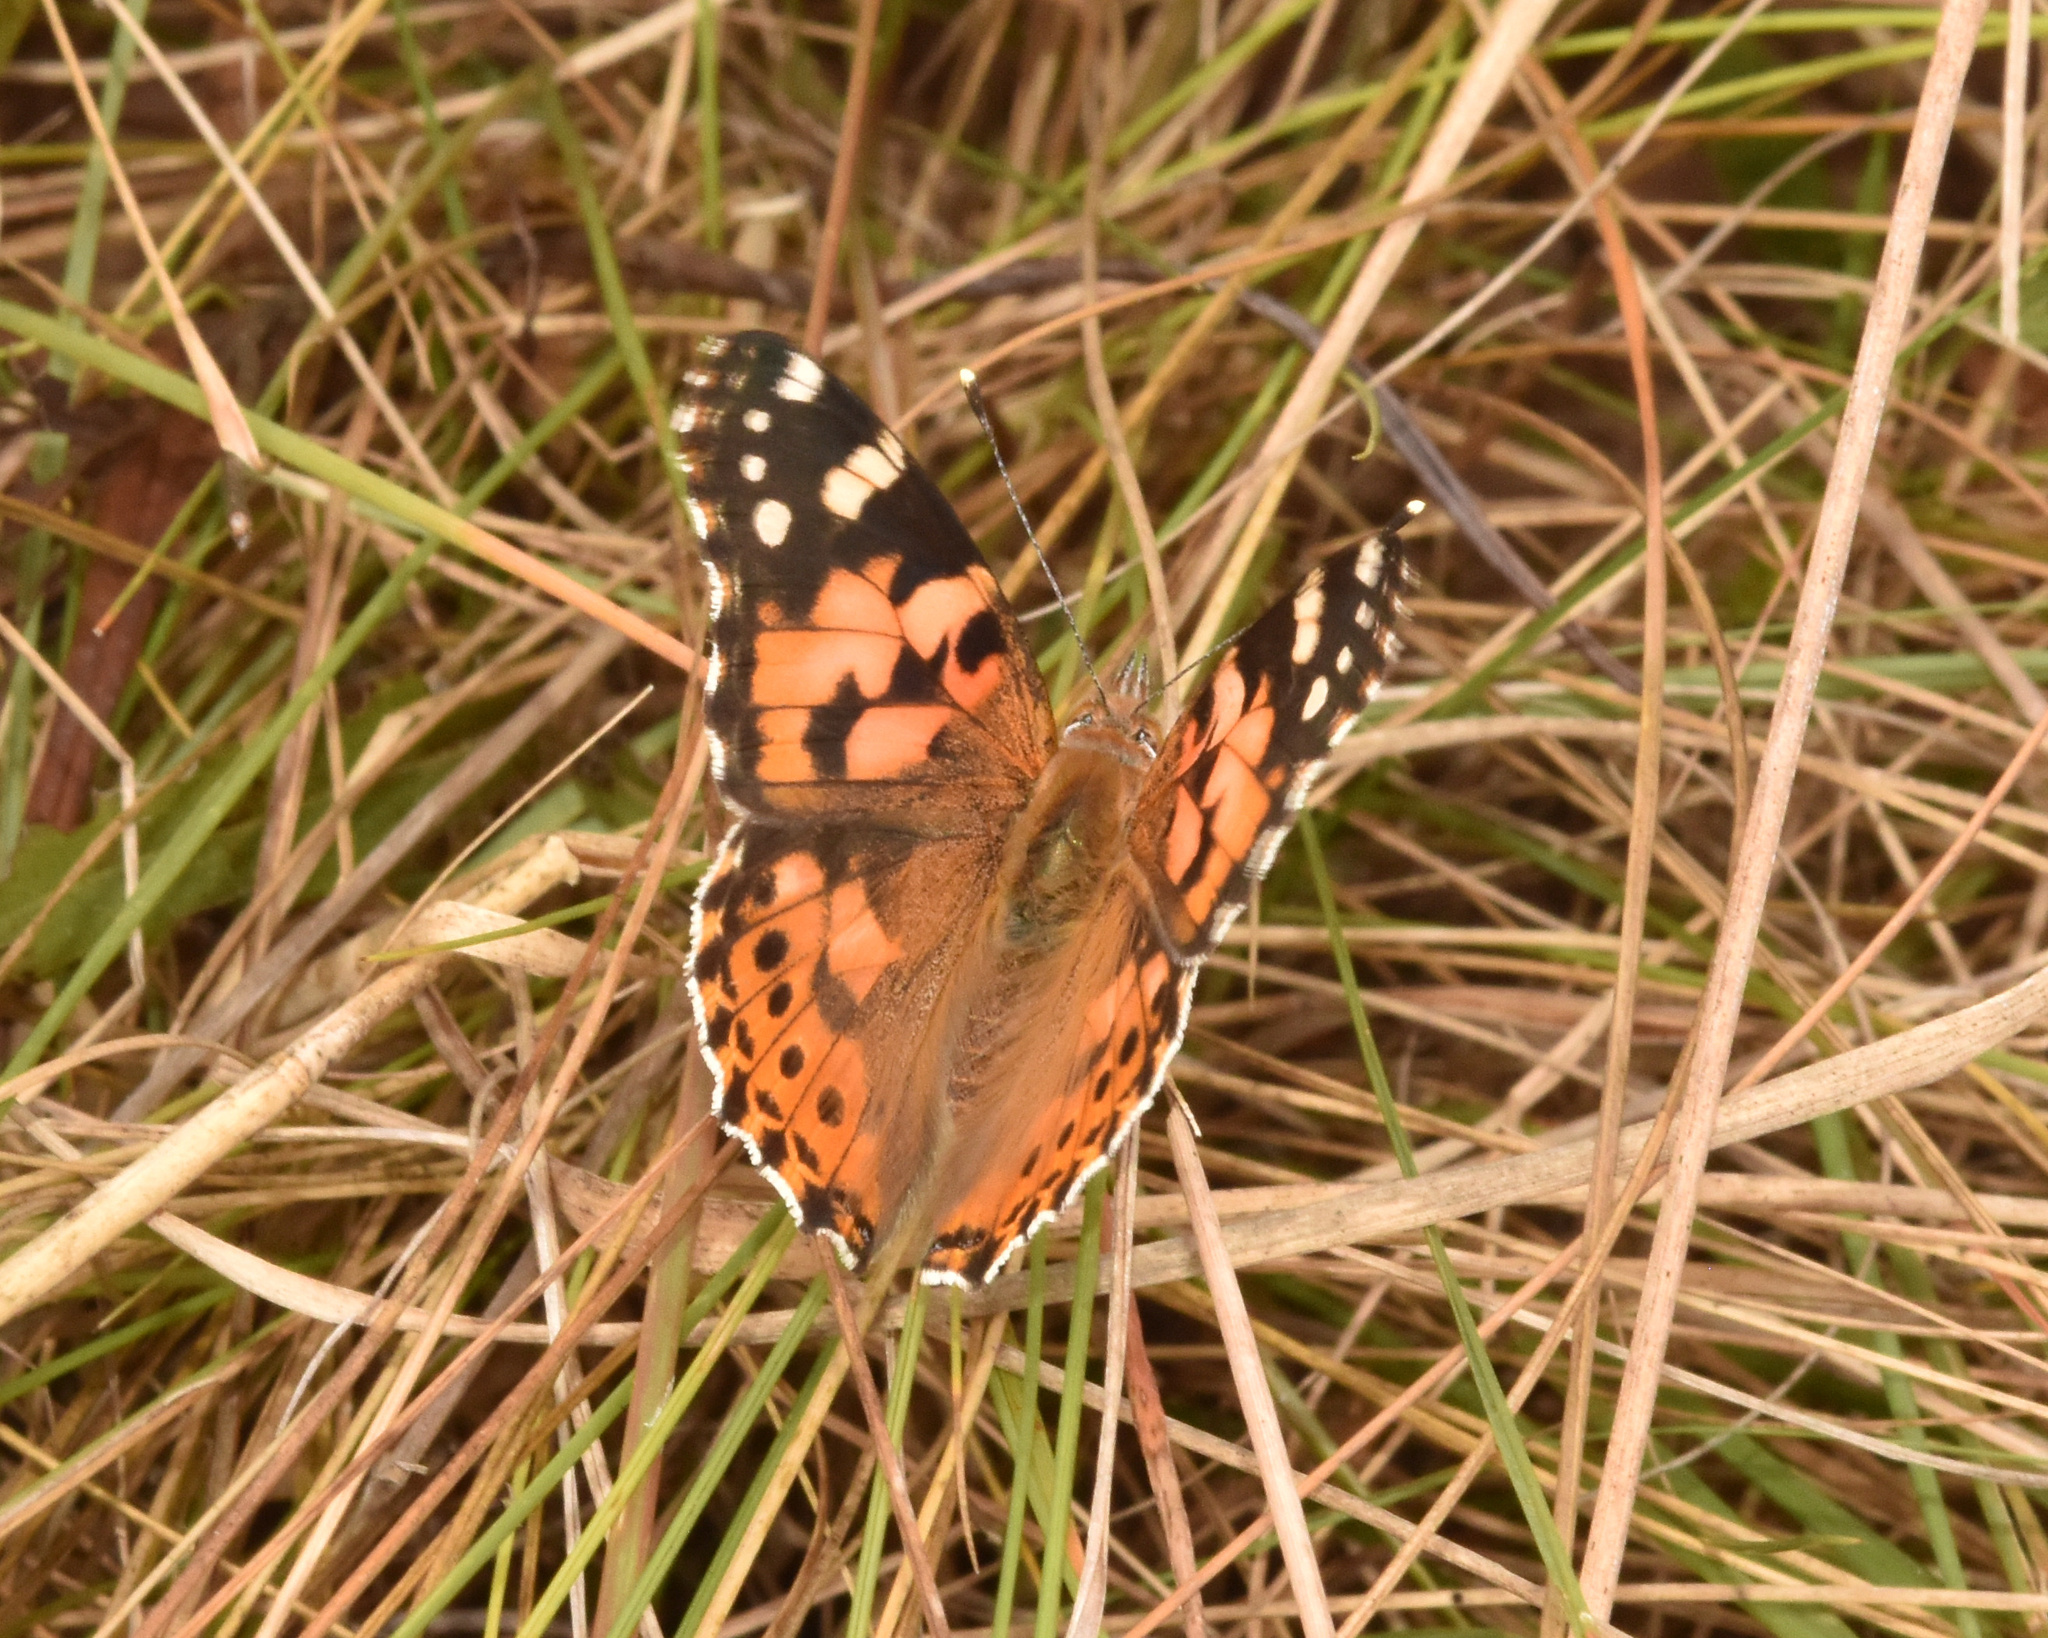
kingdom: Animalia
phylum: Arthropoda
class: Insecta
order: Lepidoptera
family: Nymphalidae
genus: Vanessa
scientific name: Vanessa cardui
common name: Painted lady
